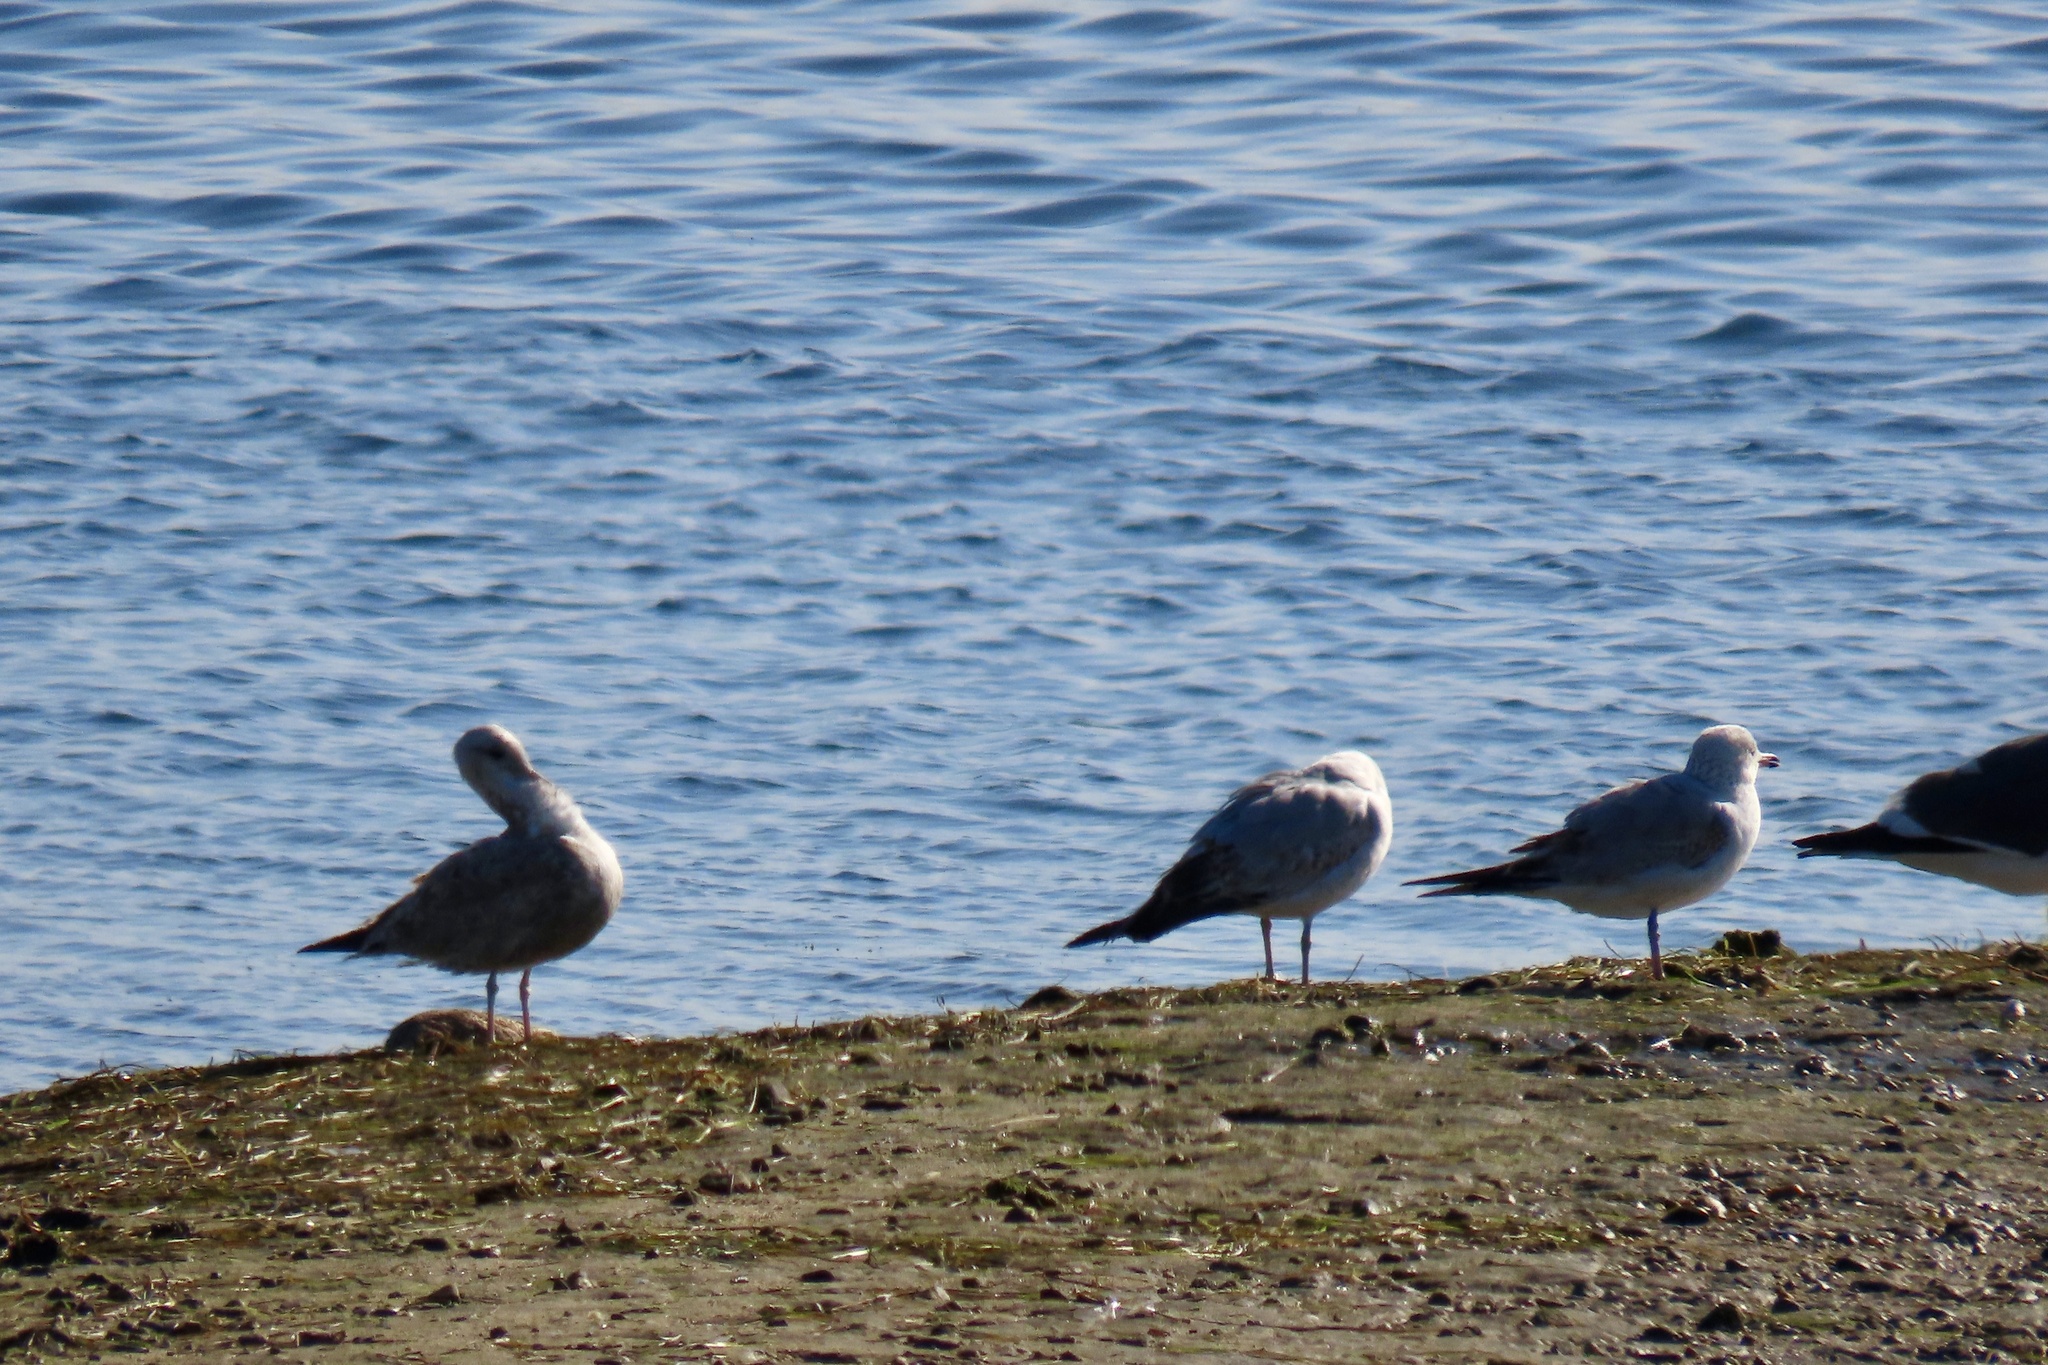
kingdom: Animalia
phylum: Chordata
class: Aves
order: Charadriiformes
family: Laridae
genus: Larus
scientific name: Larus delawarensis
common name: Ring-billed gull
